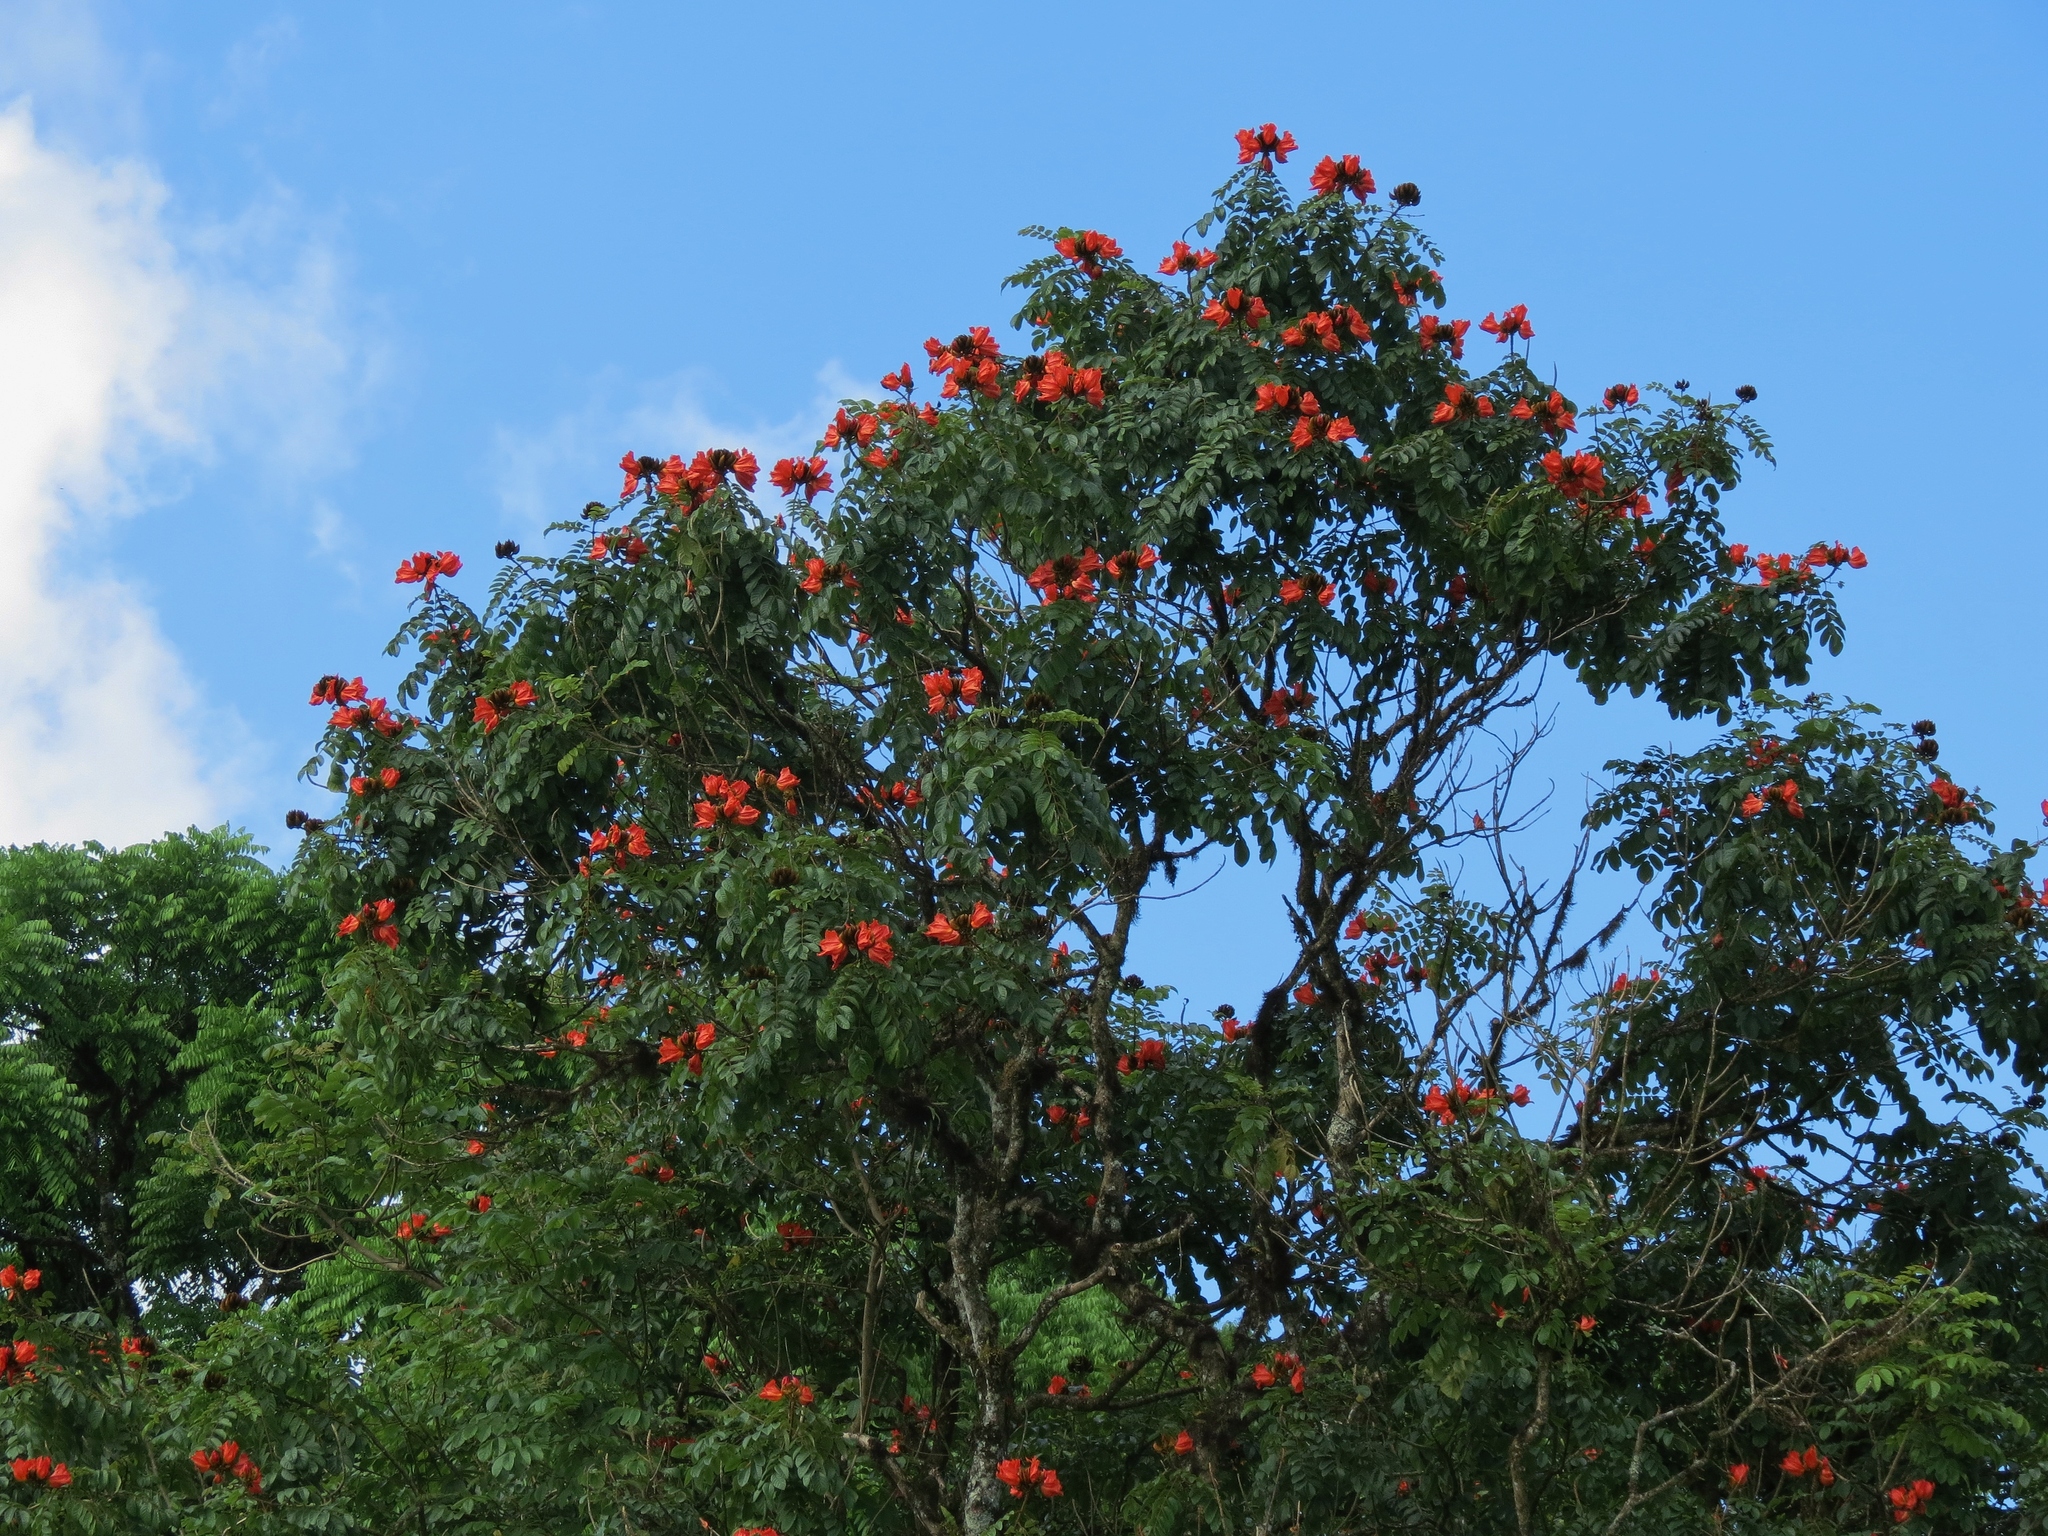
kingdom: Plantae
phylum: Tracheophyta
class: Magnoliopsida
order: Lamiales
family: Bignoniaceae
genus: Spathodea
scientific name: Spathodea campanulata
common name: African tuliptree
